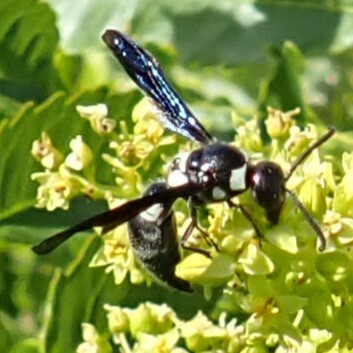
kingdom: Animalia
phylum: Arthropoda
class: Insecta
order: Hymenoptera
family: Eumenidae
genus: Pseudodynerus
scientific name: Pseudodynerus quadrisectus
